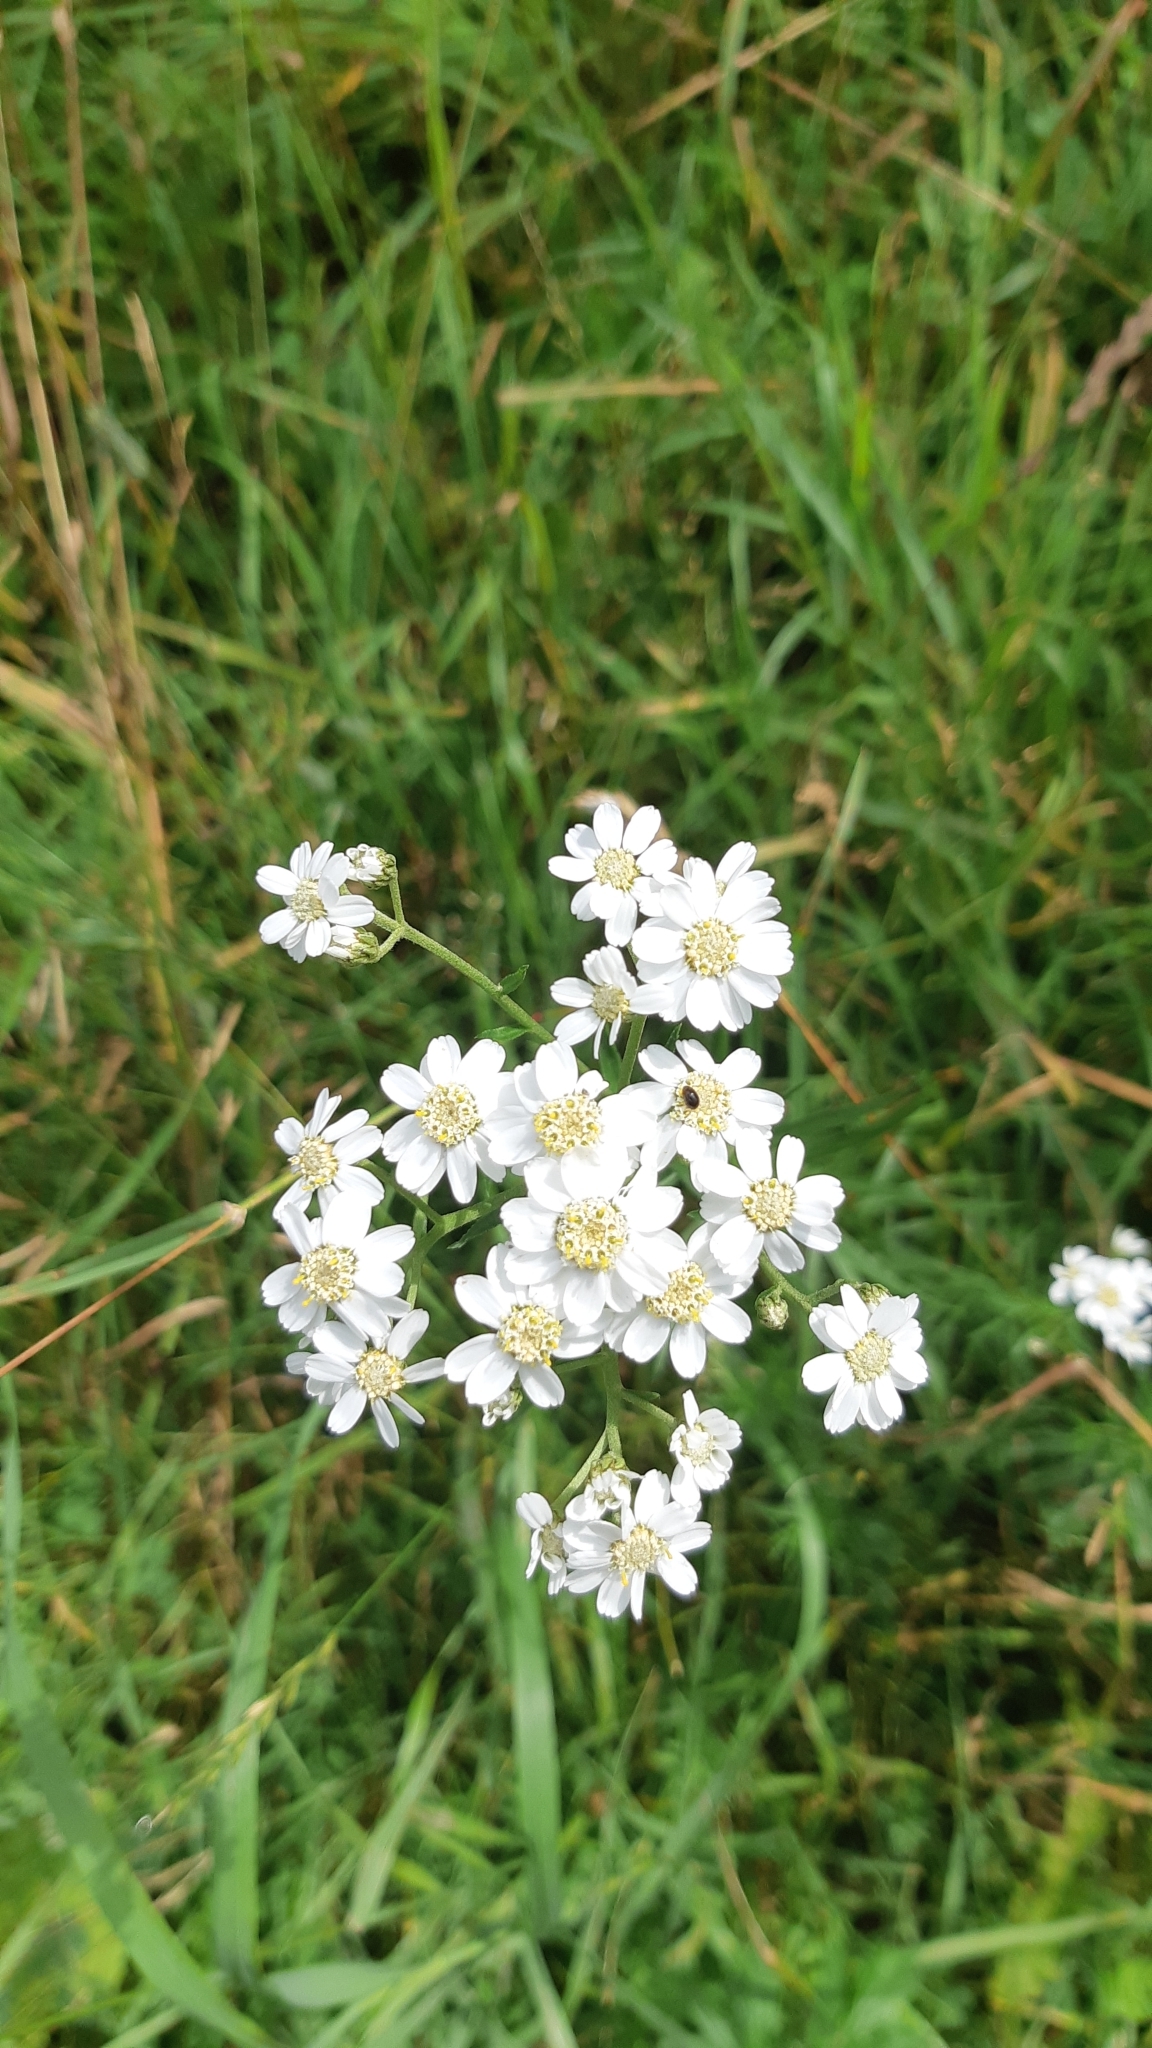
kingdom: Plantae
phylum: Tracheophyta
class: Magnoliopsida
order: Asterales
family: Asteraceae
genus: Achillea
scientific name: Achillea ptarmica
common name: Sneezeweed
